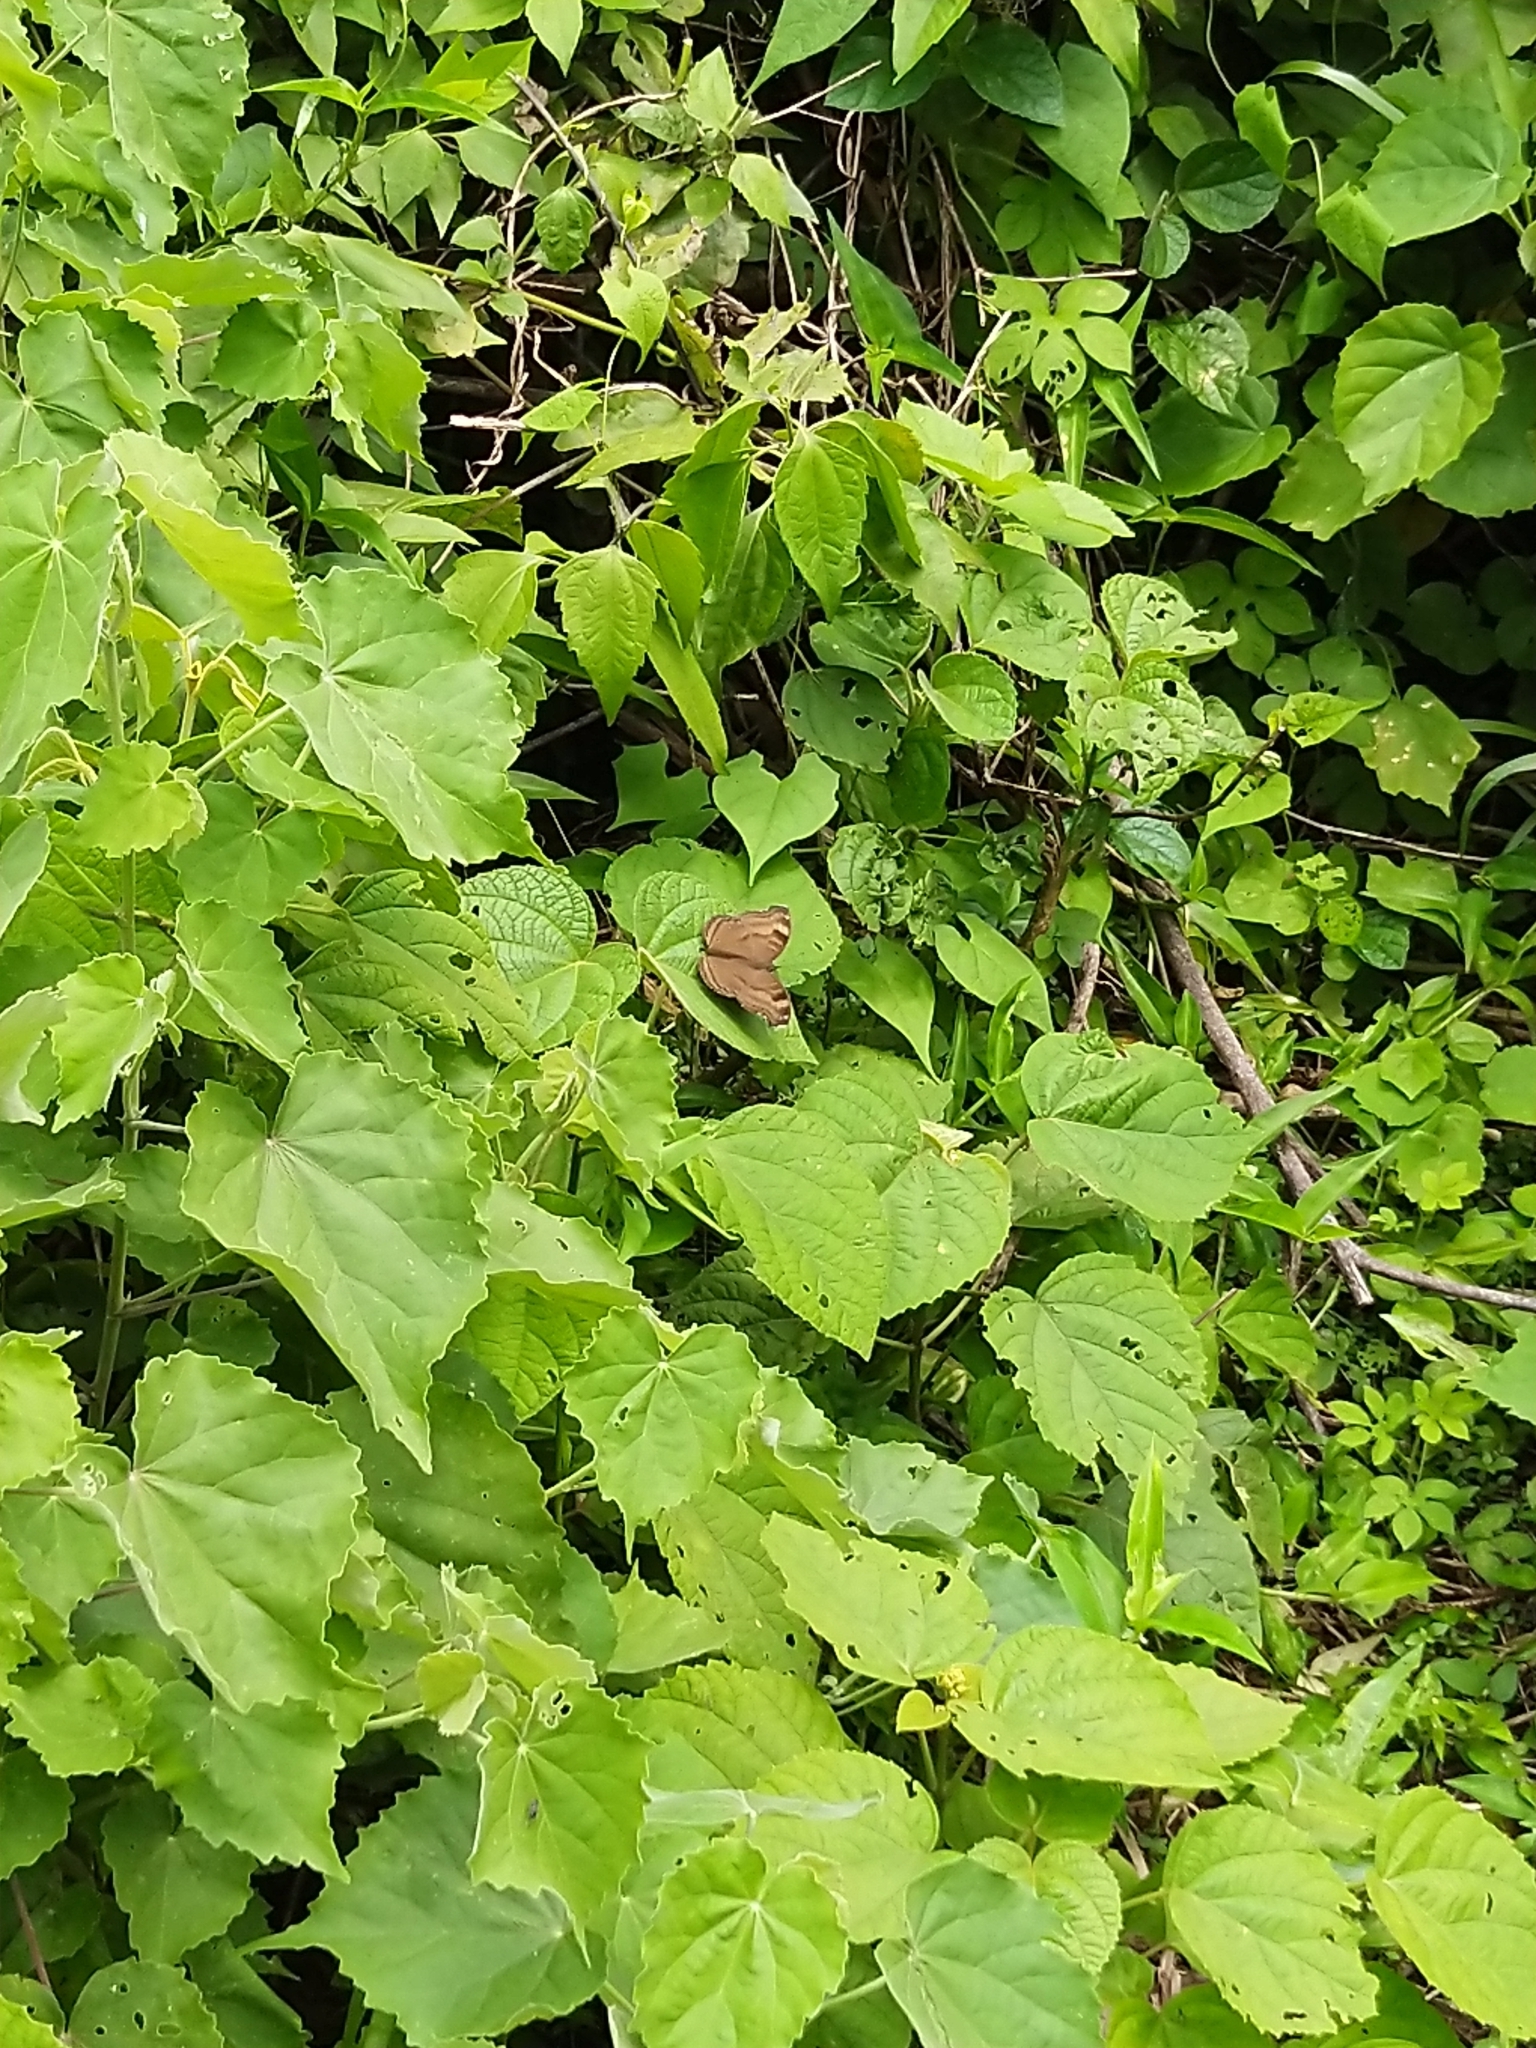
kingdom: Animalia
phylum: Arthropoda
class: Insecta
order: Lepidoptera
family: Nymphalidae
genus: Junonia
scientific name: Junonia iphita
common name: Chocolate pansy
